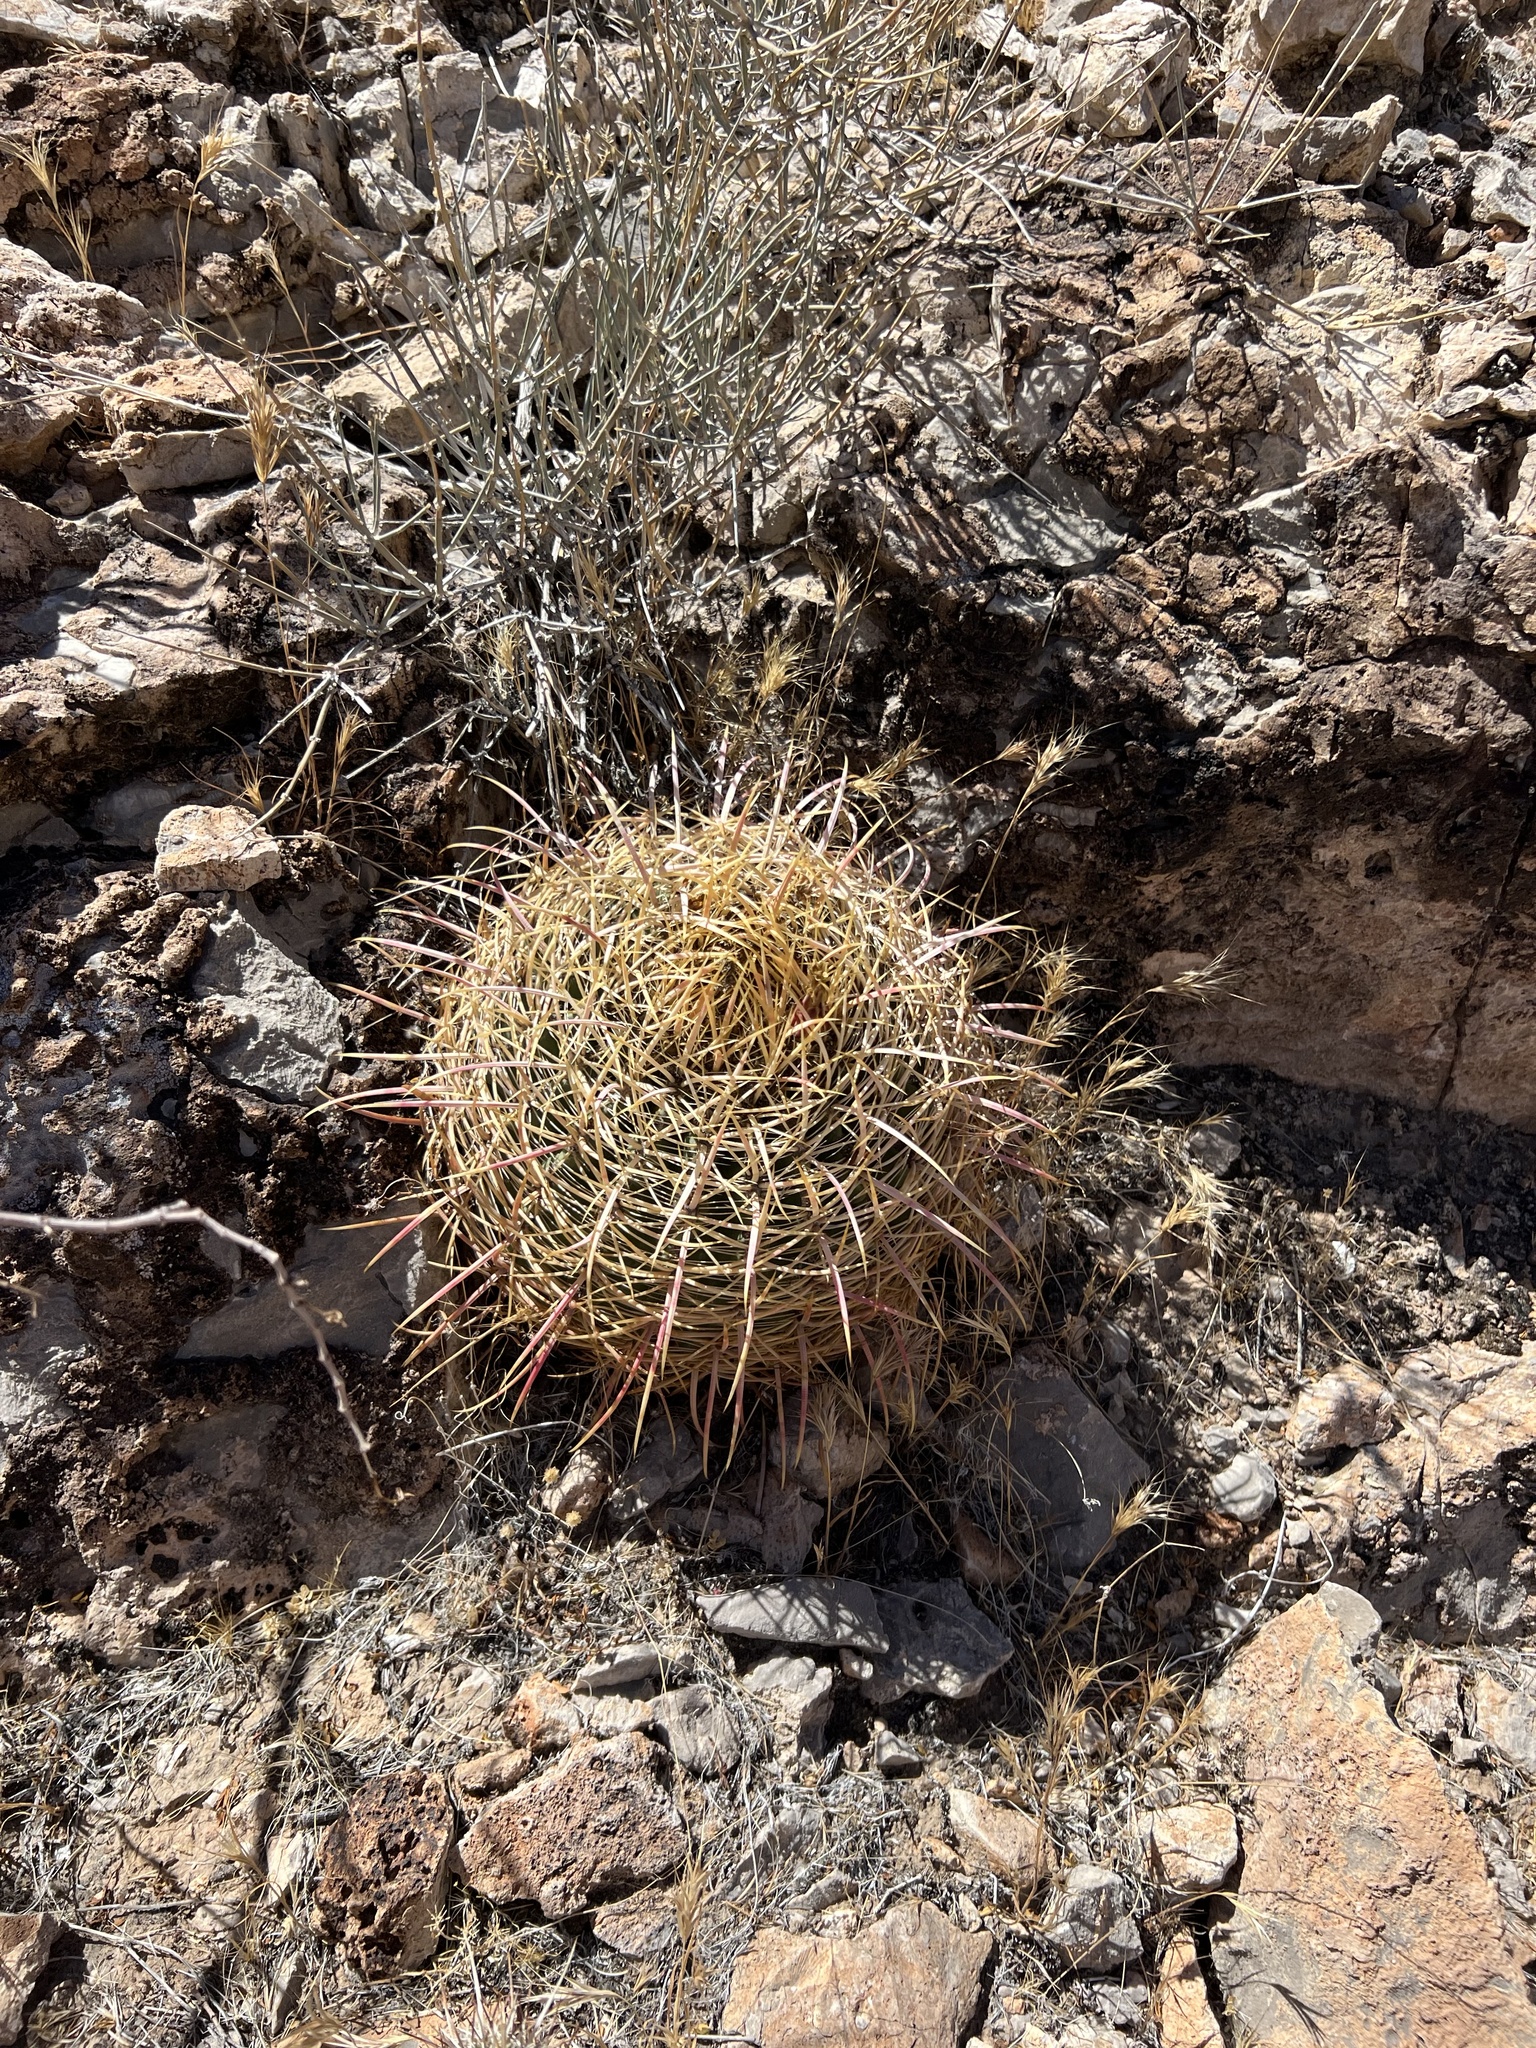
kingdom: Plantae
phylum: Tracheophyta
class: Magnoliopsida
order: Caryophyllales
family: Cactaceae
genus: Ferocactus
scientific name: Ferocactus cylindraceus
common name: California barrel cactus
